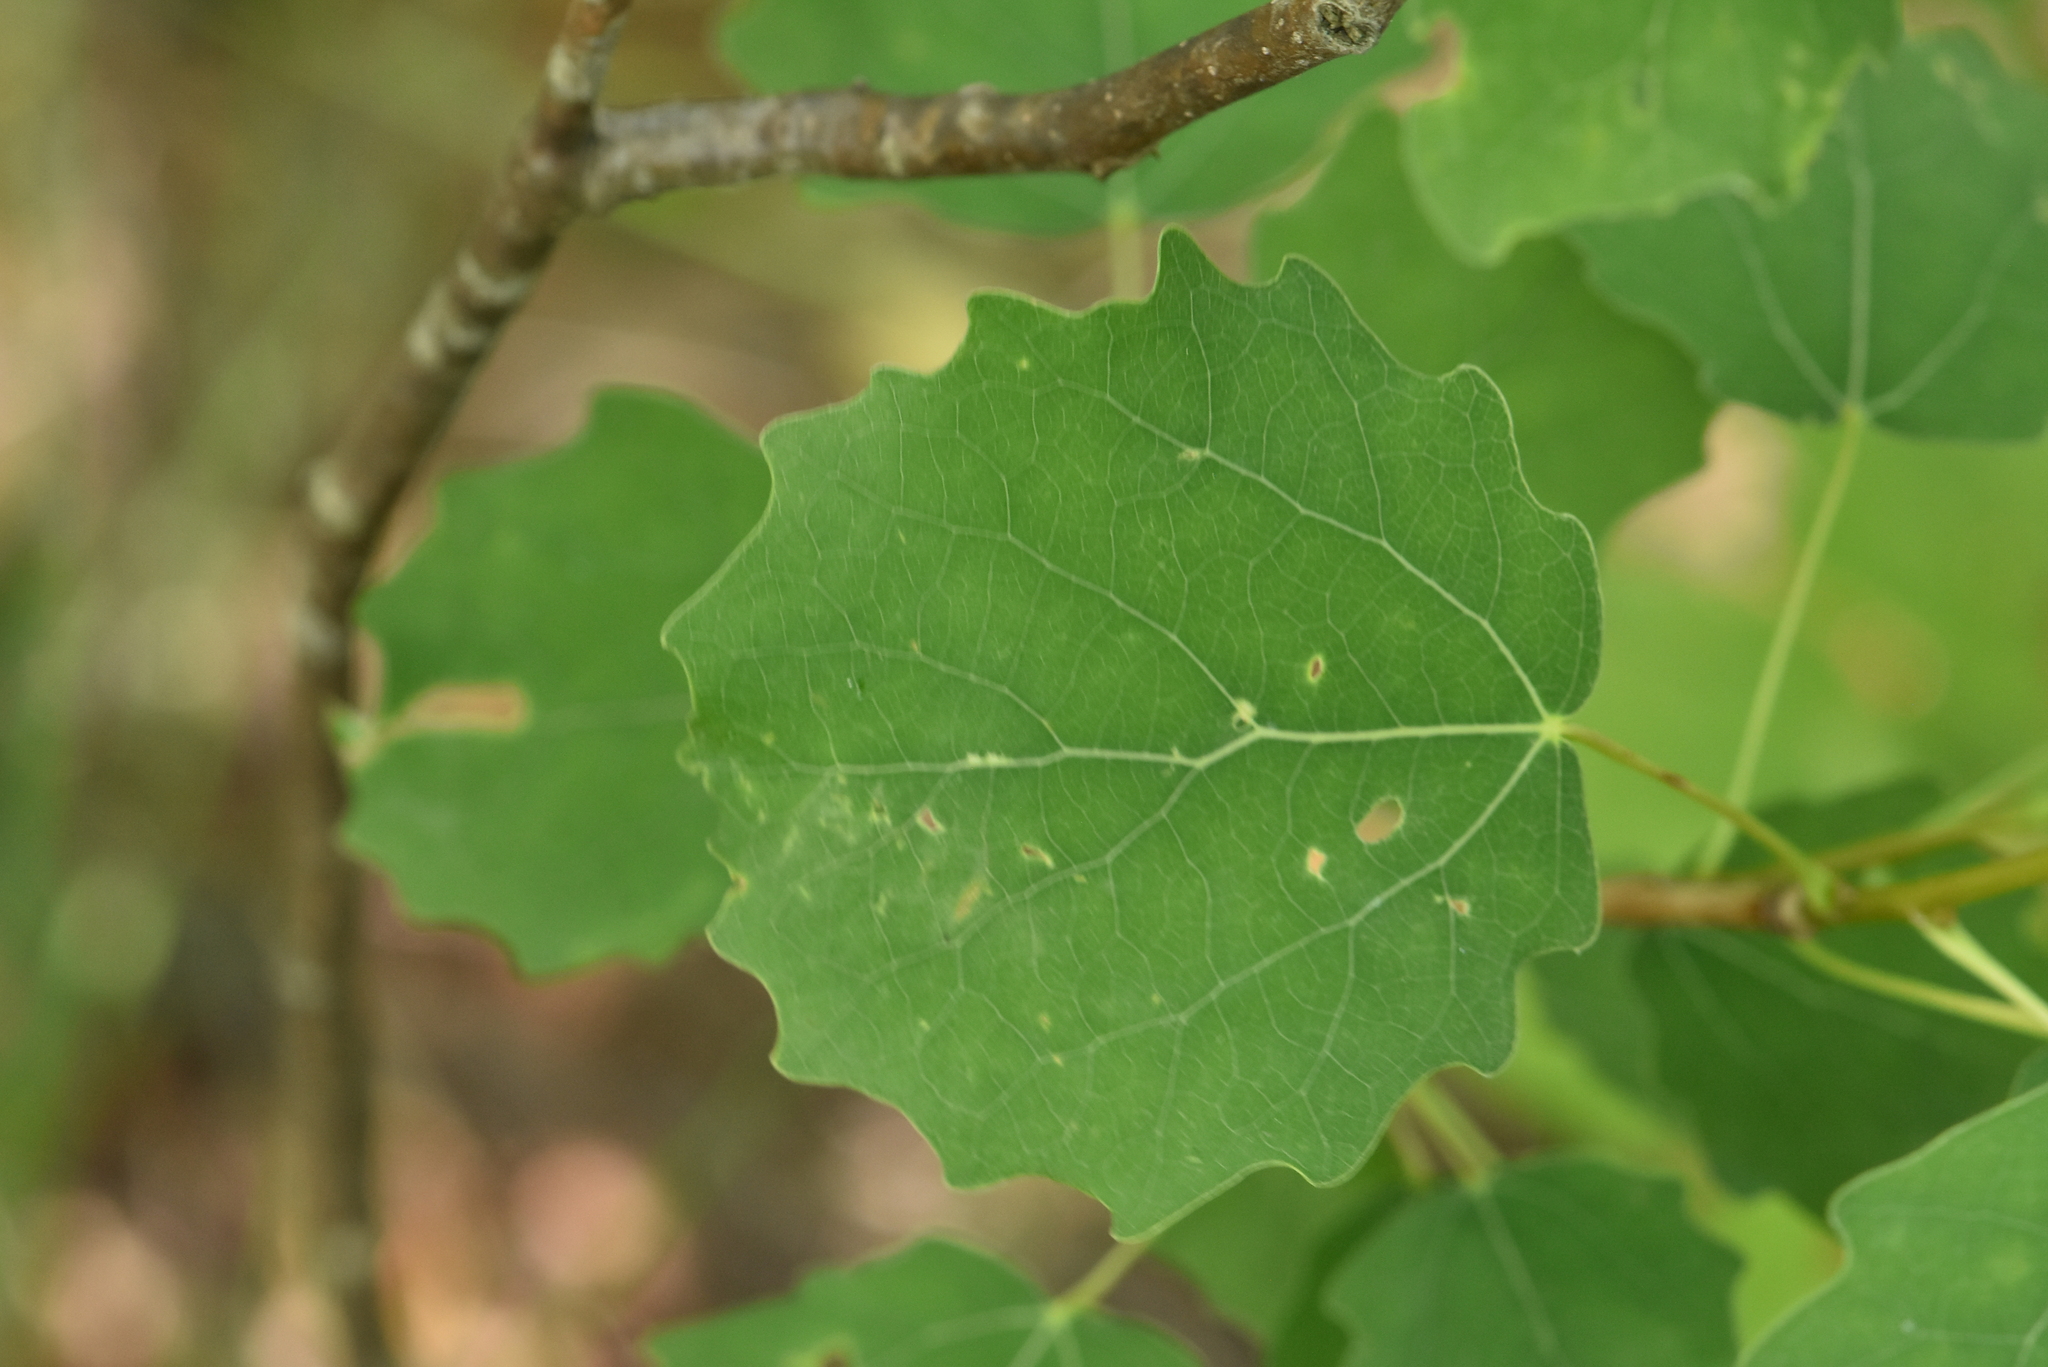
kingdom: Plantae
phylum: Tracheophyta
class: Magnoliopsida
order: Malpighiales
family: Salicaceae
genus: Populus
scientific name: Populus tremula
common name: European aspen
